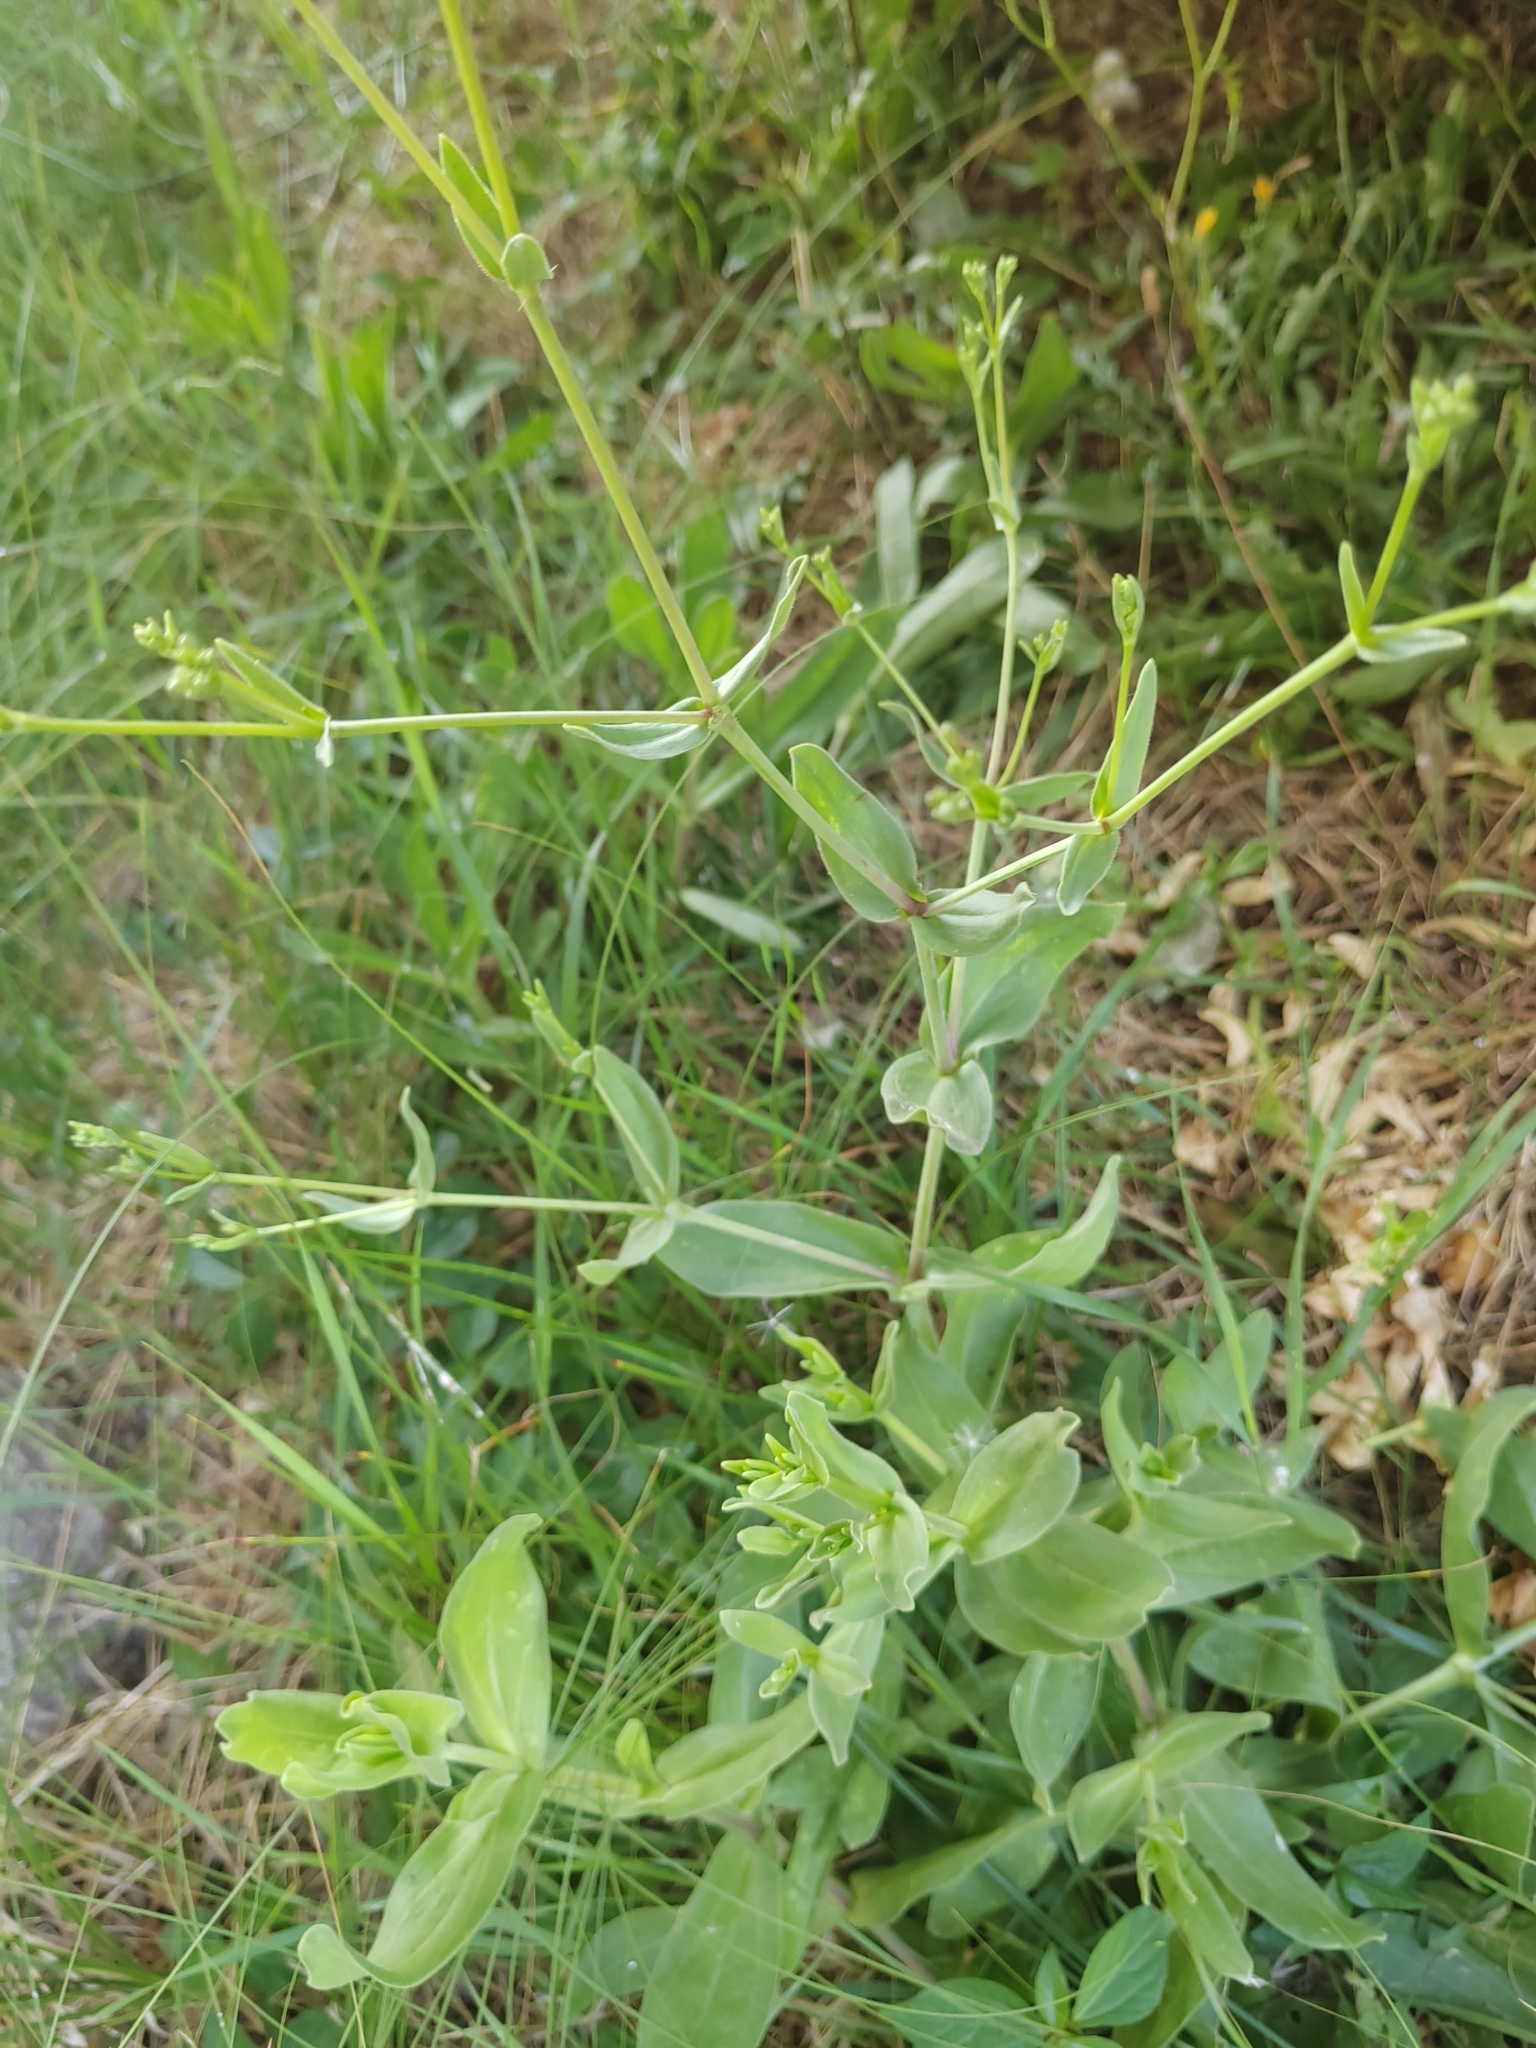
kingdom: Plantae
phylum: Tracheophyta
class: Magnoliopsida
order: Caryophyllales
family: Caryophyllaceae
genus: Gypsophila
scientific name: Gypsophila perfoliata
